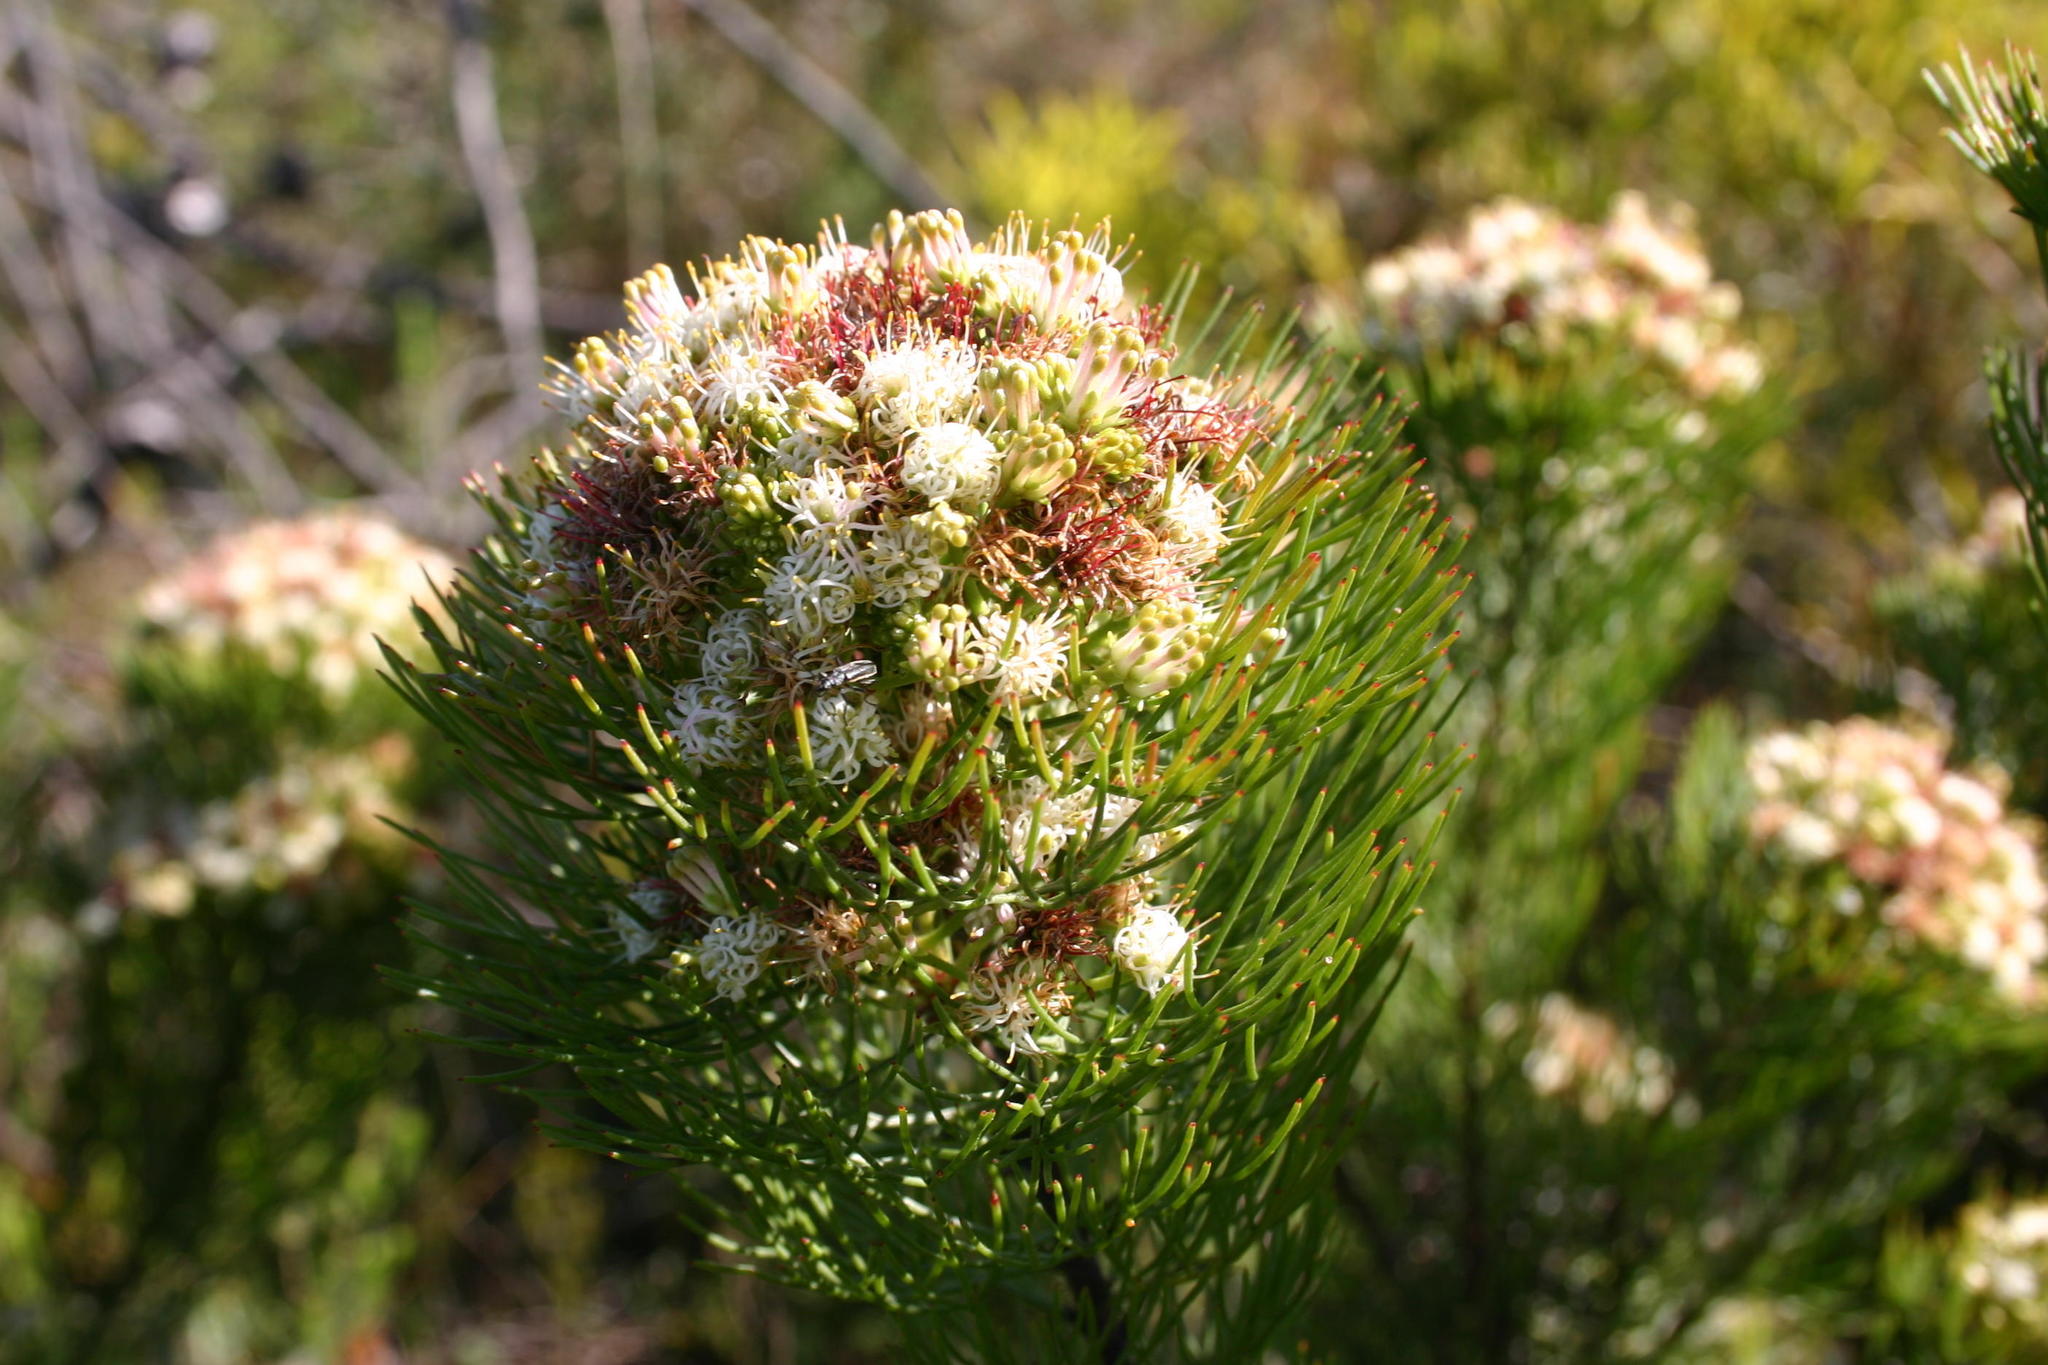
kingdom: Plantae
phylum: Tracheophyta
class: Magnoliopsida
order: Proteales
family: Proteaceae
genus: Serruria
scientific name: Serruria fasciflora
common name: Common pin spiderhead
